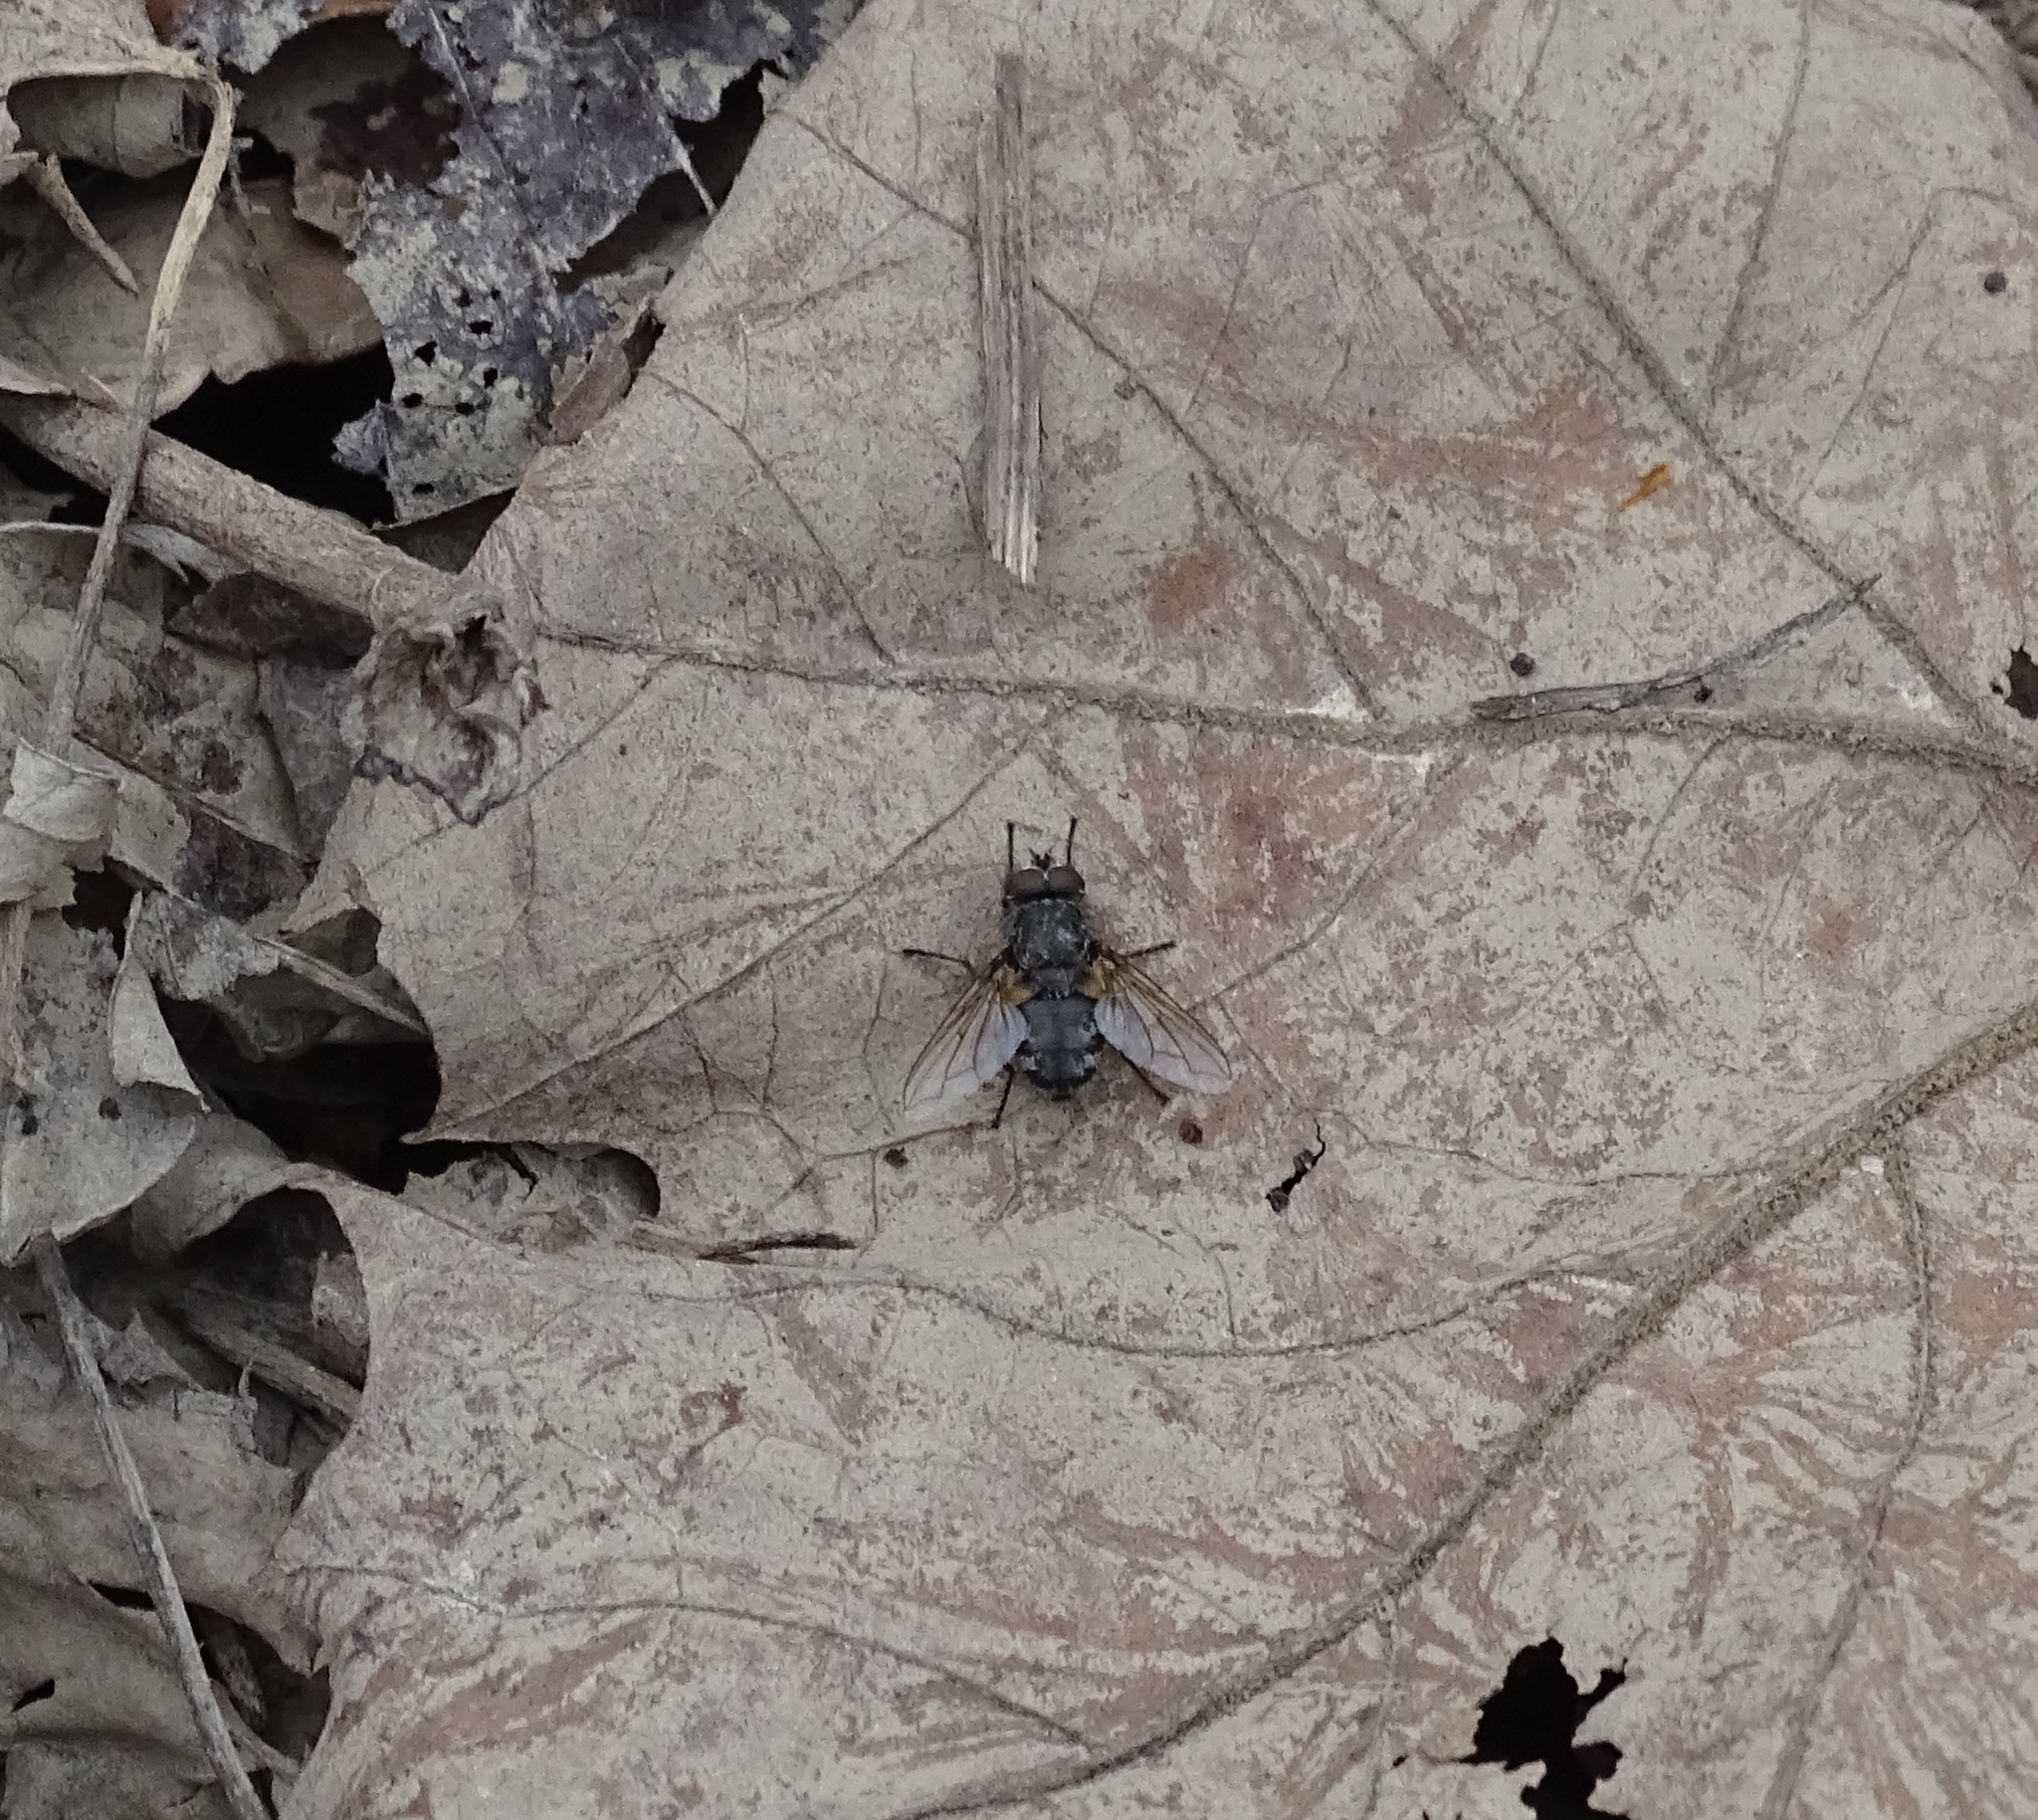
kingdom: Animalia
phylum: Arthropoda
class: Insecta
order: Diptera
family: Polleniidae
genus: Pollenia
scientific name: Pollenia
